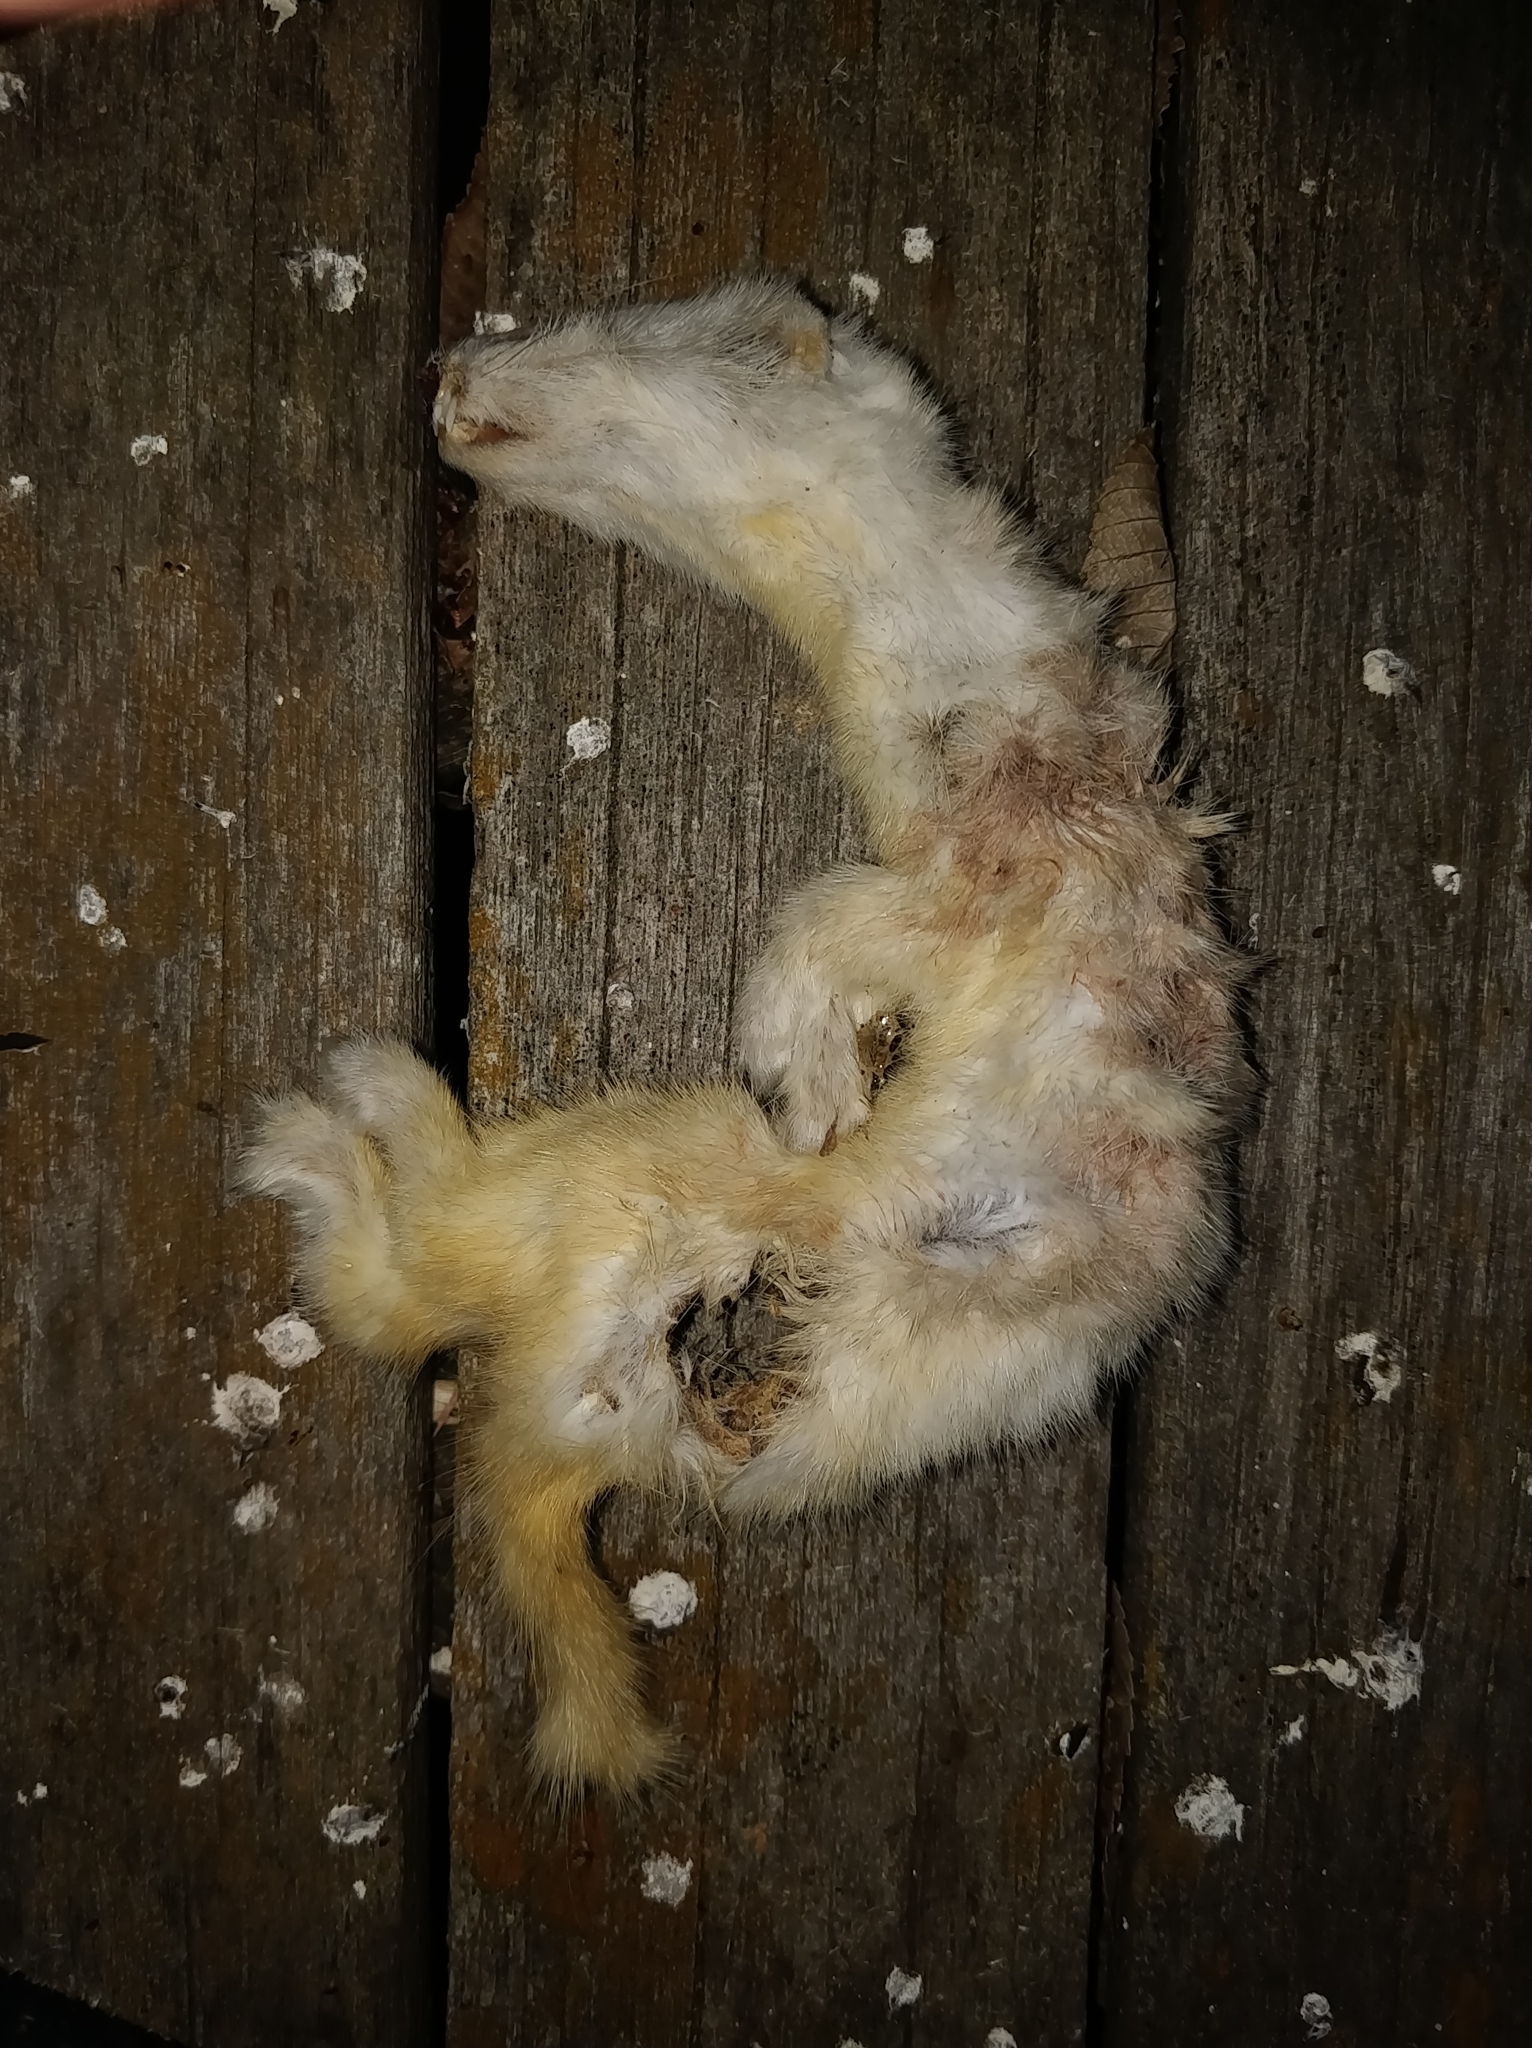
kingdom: Animalia
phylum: Chordata
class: Mammalia
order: Carnivora
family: Mustelidae
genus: Mustela
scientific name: Mustela nivalis
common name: Least weasel
